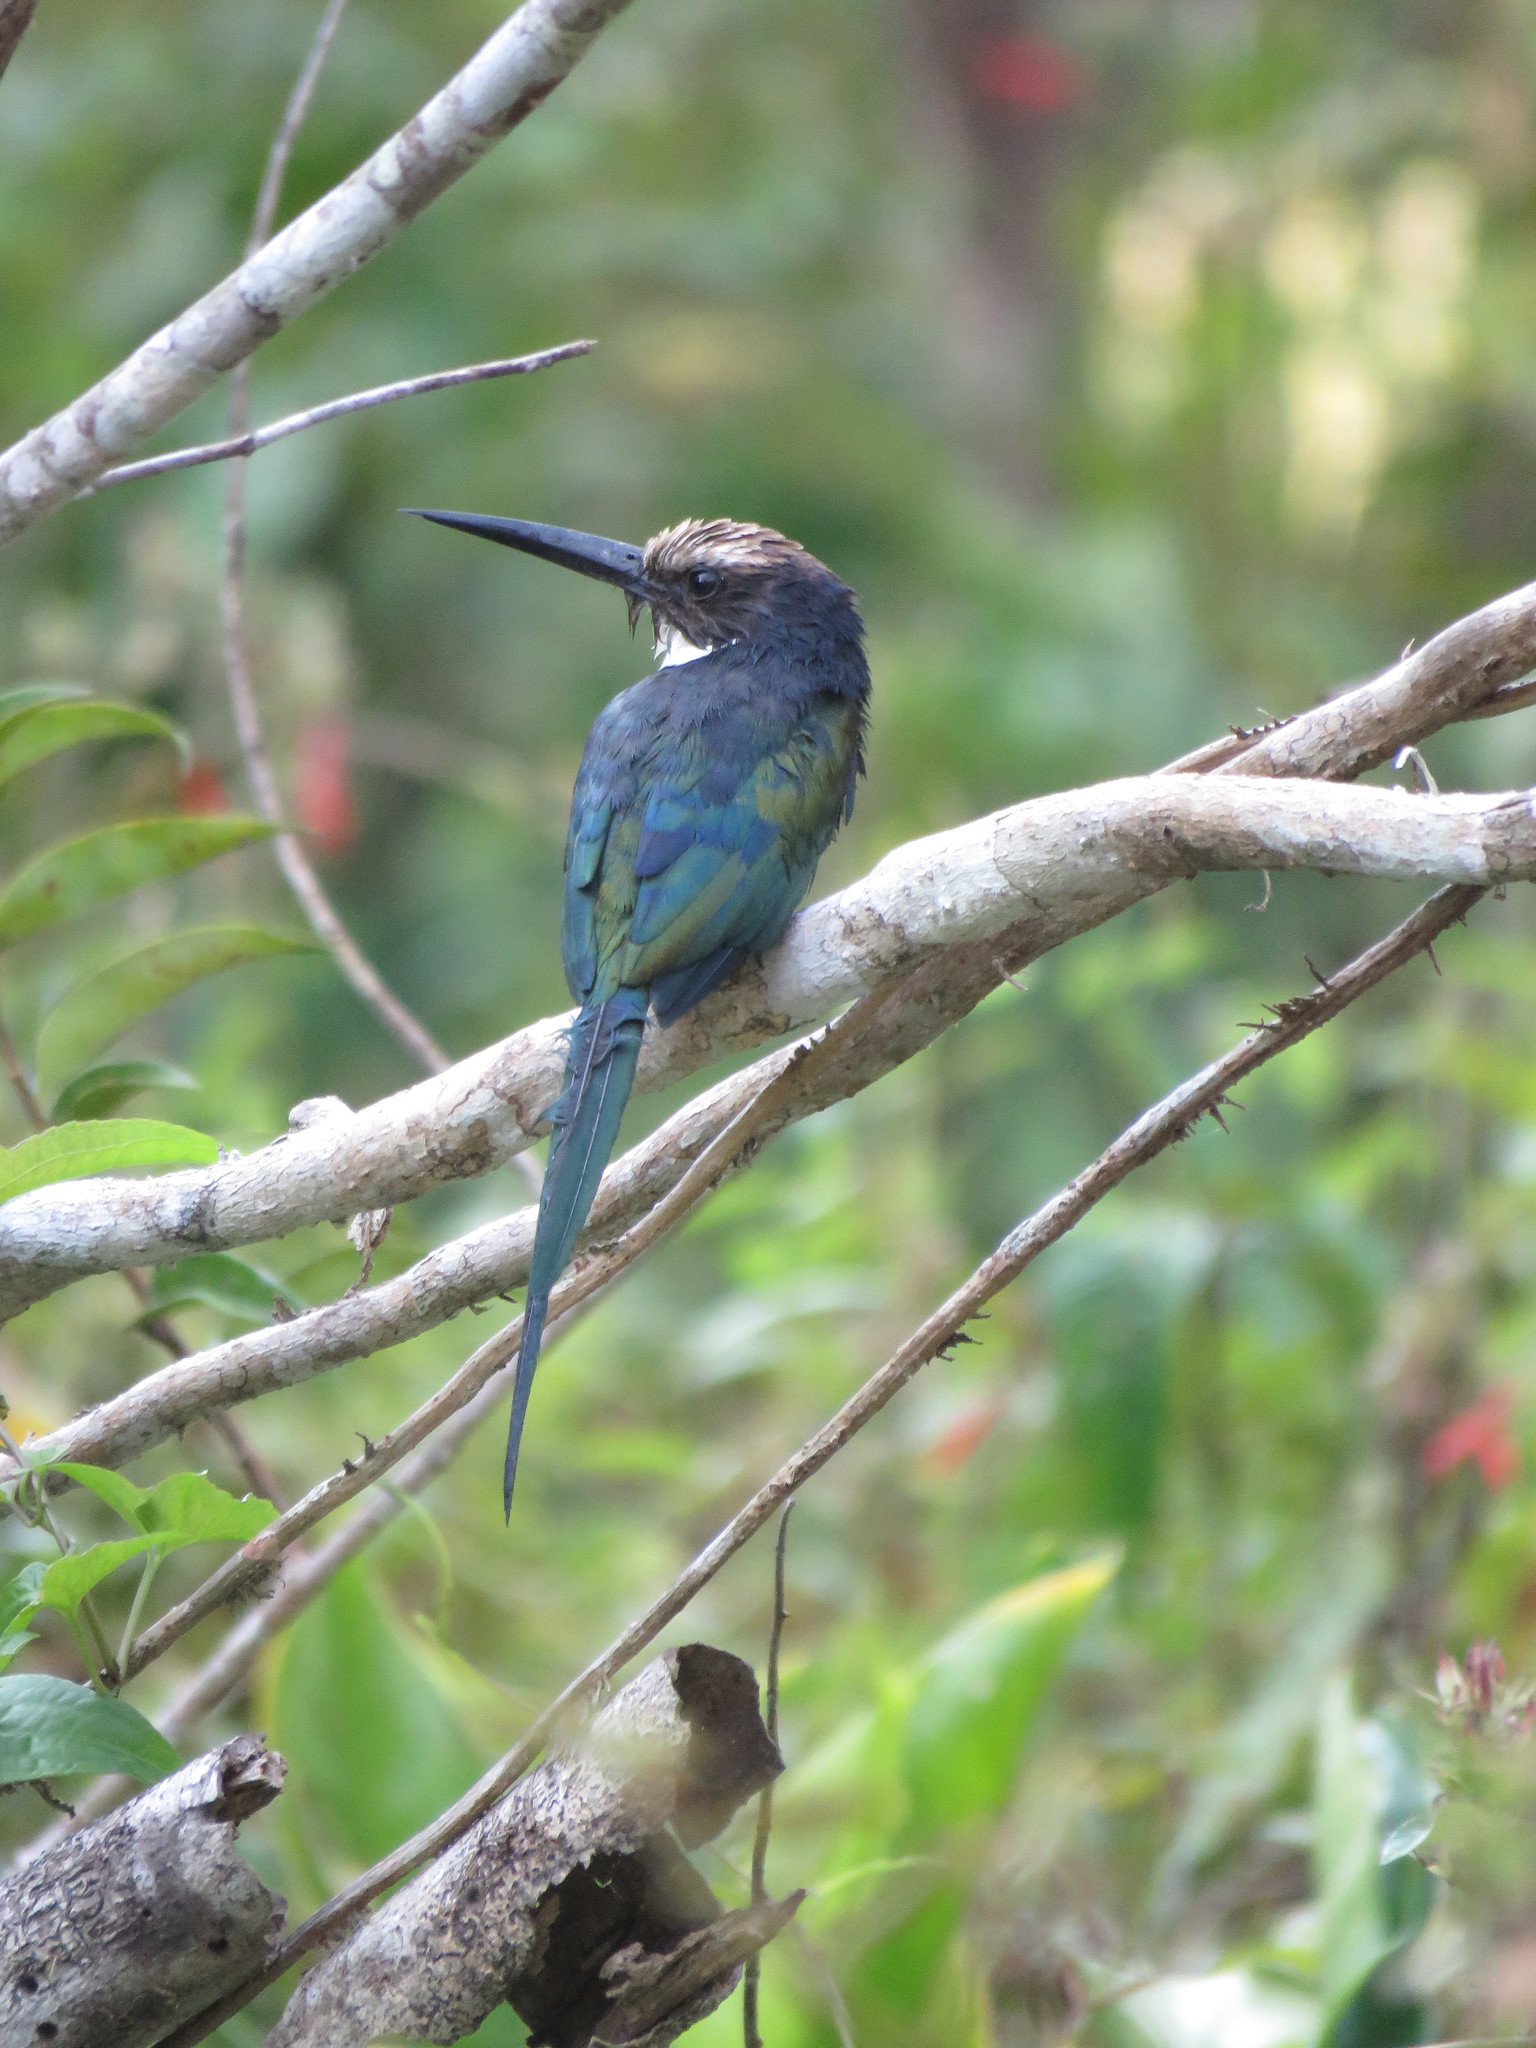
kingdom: Animalia
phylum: Chordata
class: Aves
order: Piciformes
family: Galbulidae
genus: Galbula
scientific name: Galbula dea
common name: Paradise jacamar
